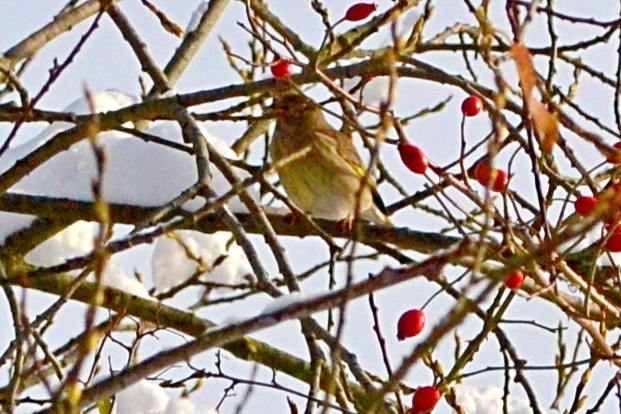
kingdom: Plantae
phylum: Tracheophyta
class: Liliopsida
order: Poales
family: Poaceae
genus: Chloris
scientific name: Chloris chloris
